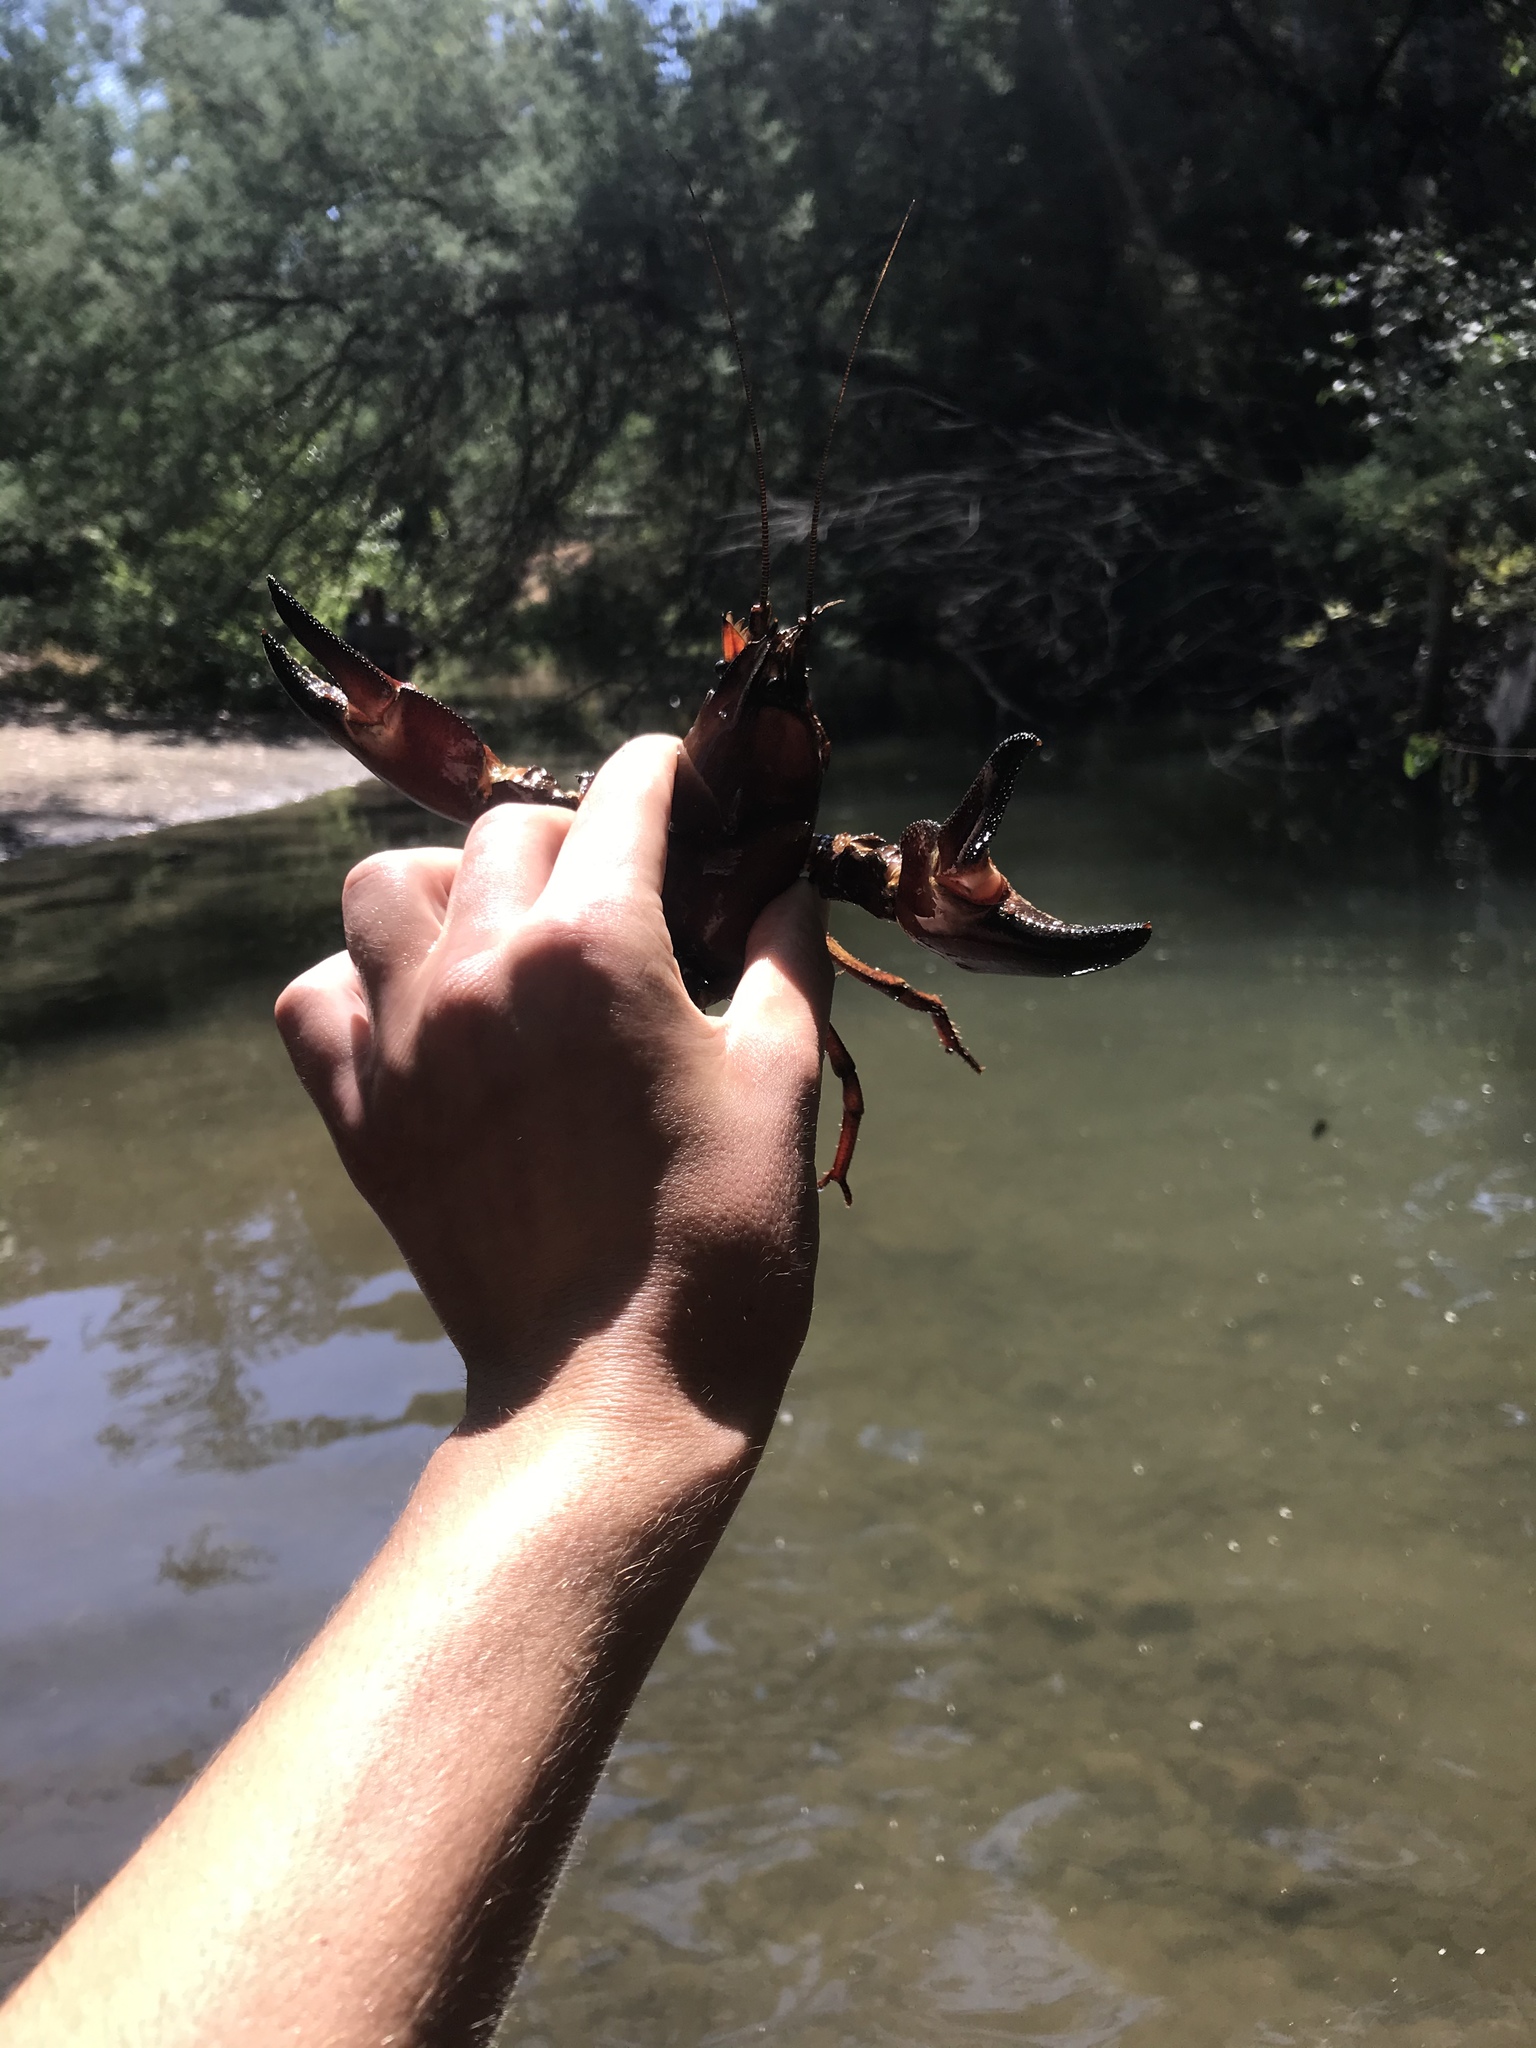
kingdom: Animalia
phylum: Arthropoda
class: Malacostraca
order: Decapoda
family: Astacidae
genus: Pacifastacus
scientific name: Pacifastacus leniusculus
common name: Signal crayfish
